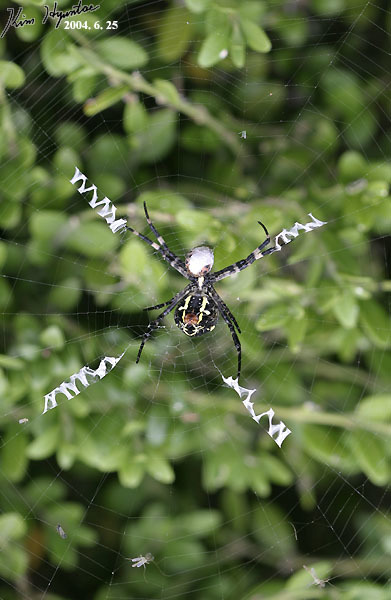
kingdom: Animalia
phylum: Arthropoda
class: Arachnida
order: Araneae
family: Araneidae
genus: Argiope
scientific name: Argiope amoena
